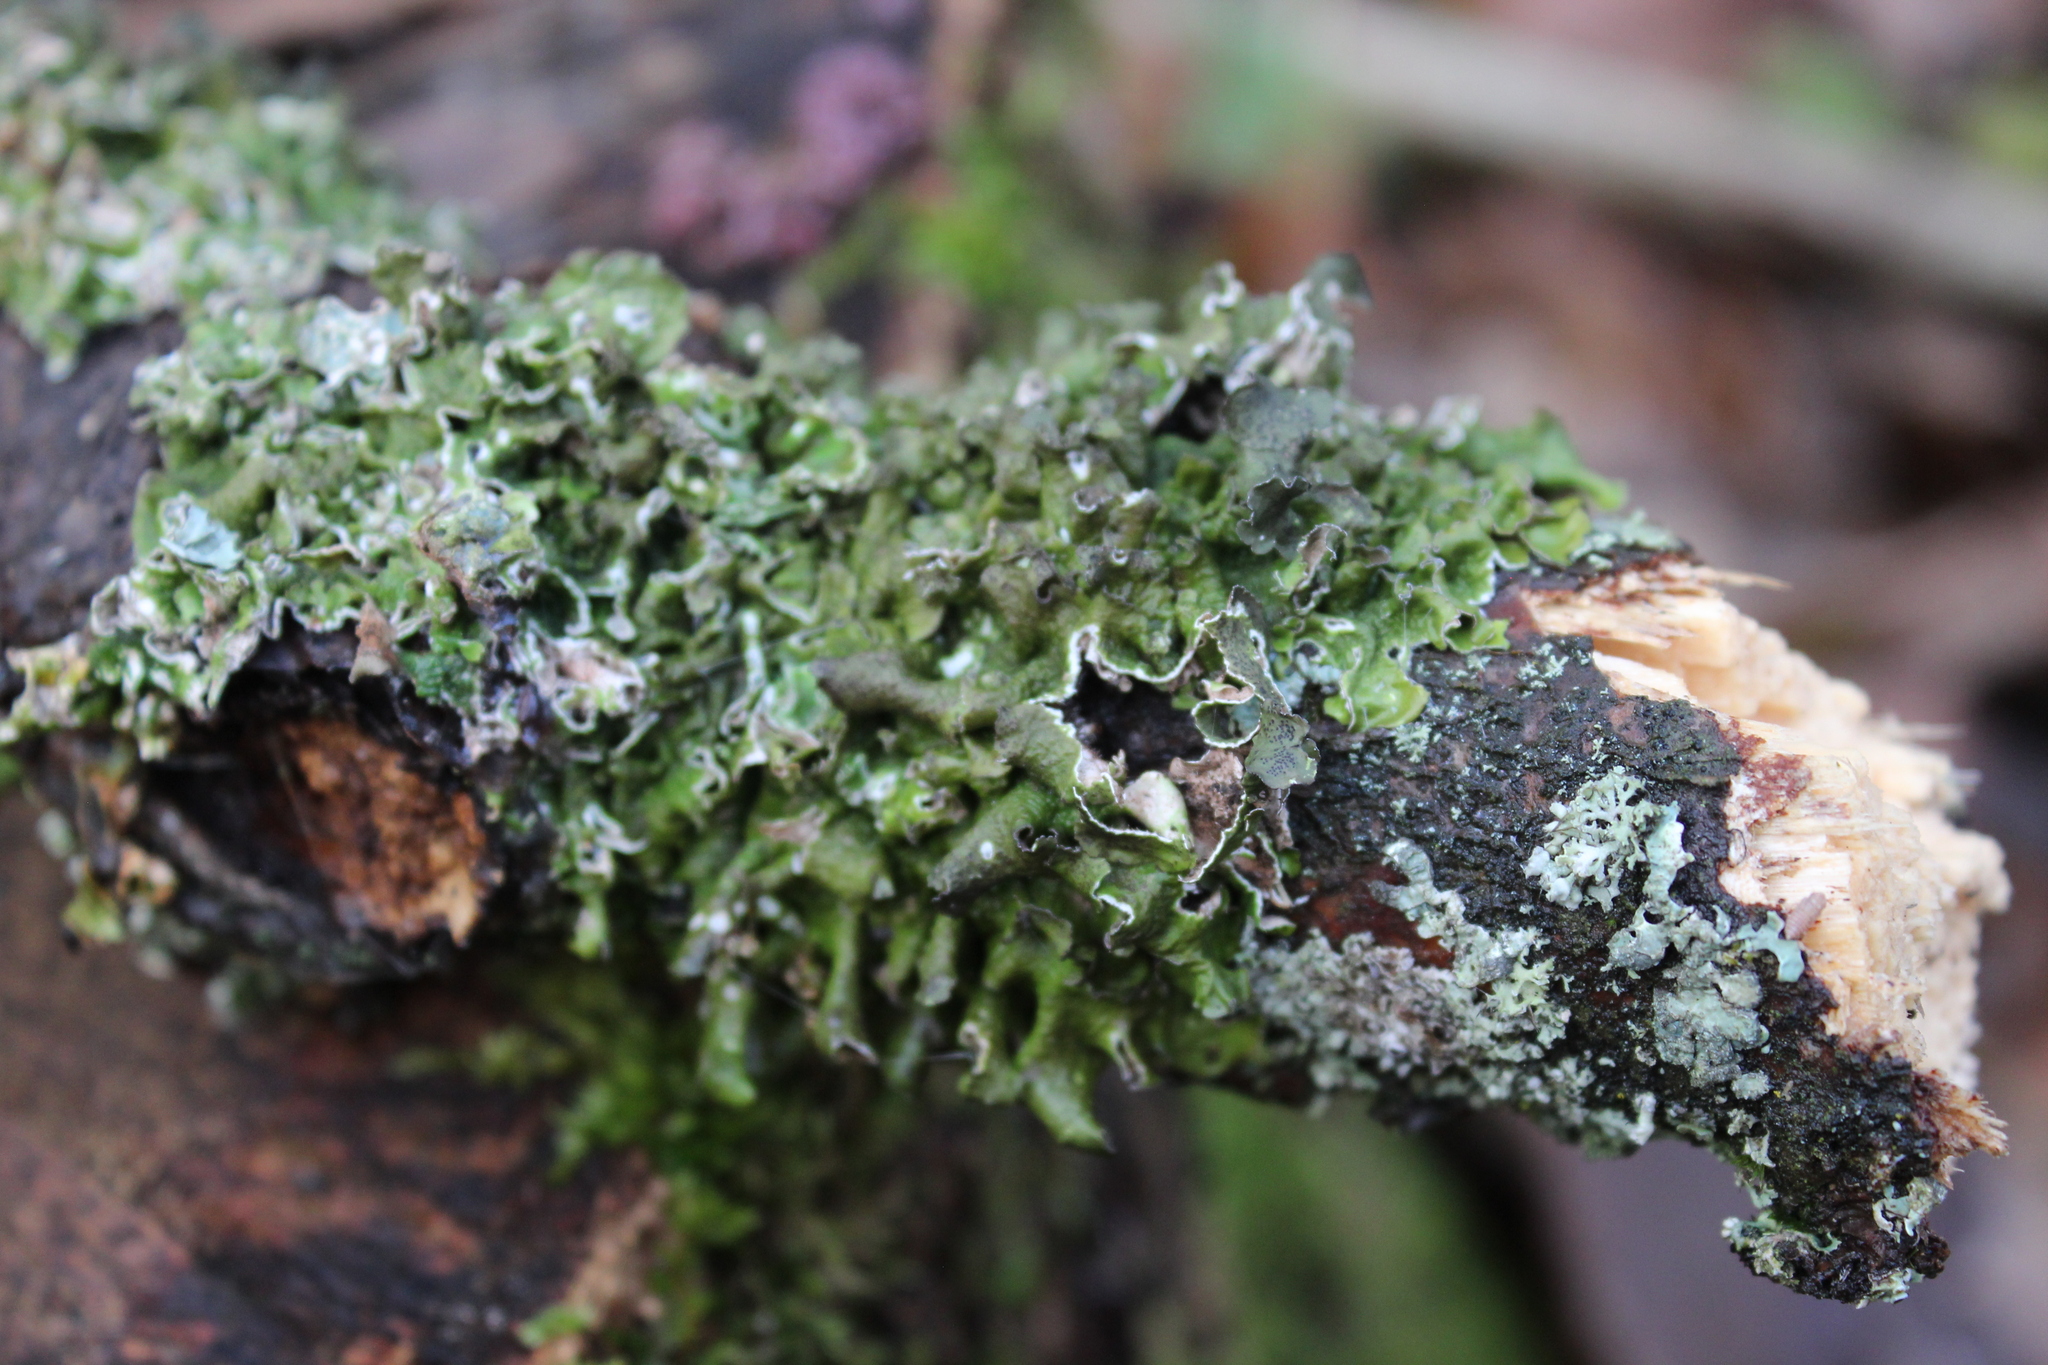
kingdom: Fungi
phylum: Ascomycota
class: Lecanoromycetes
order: Lecanorales
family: Parmeliaceae
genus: Pleurosticta
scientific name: Pleurosticta acetabulum
